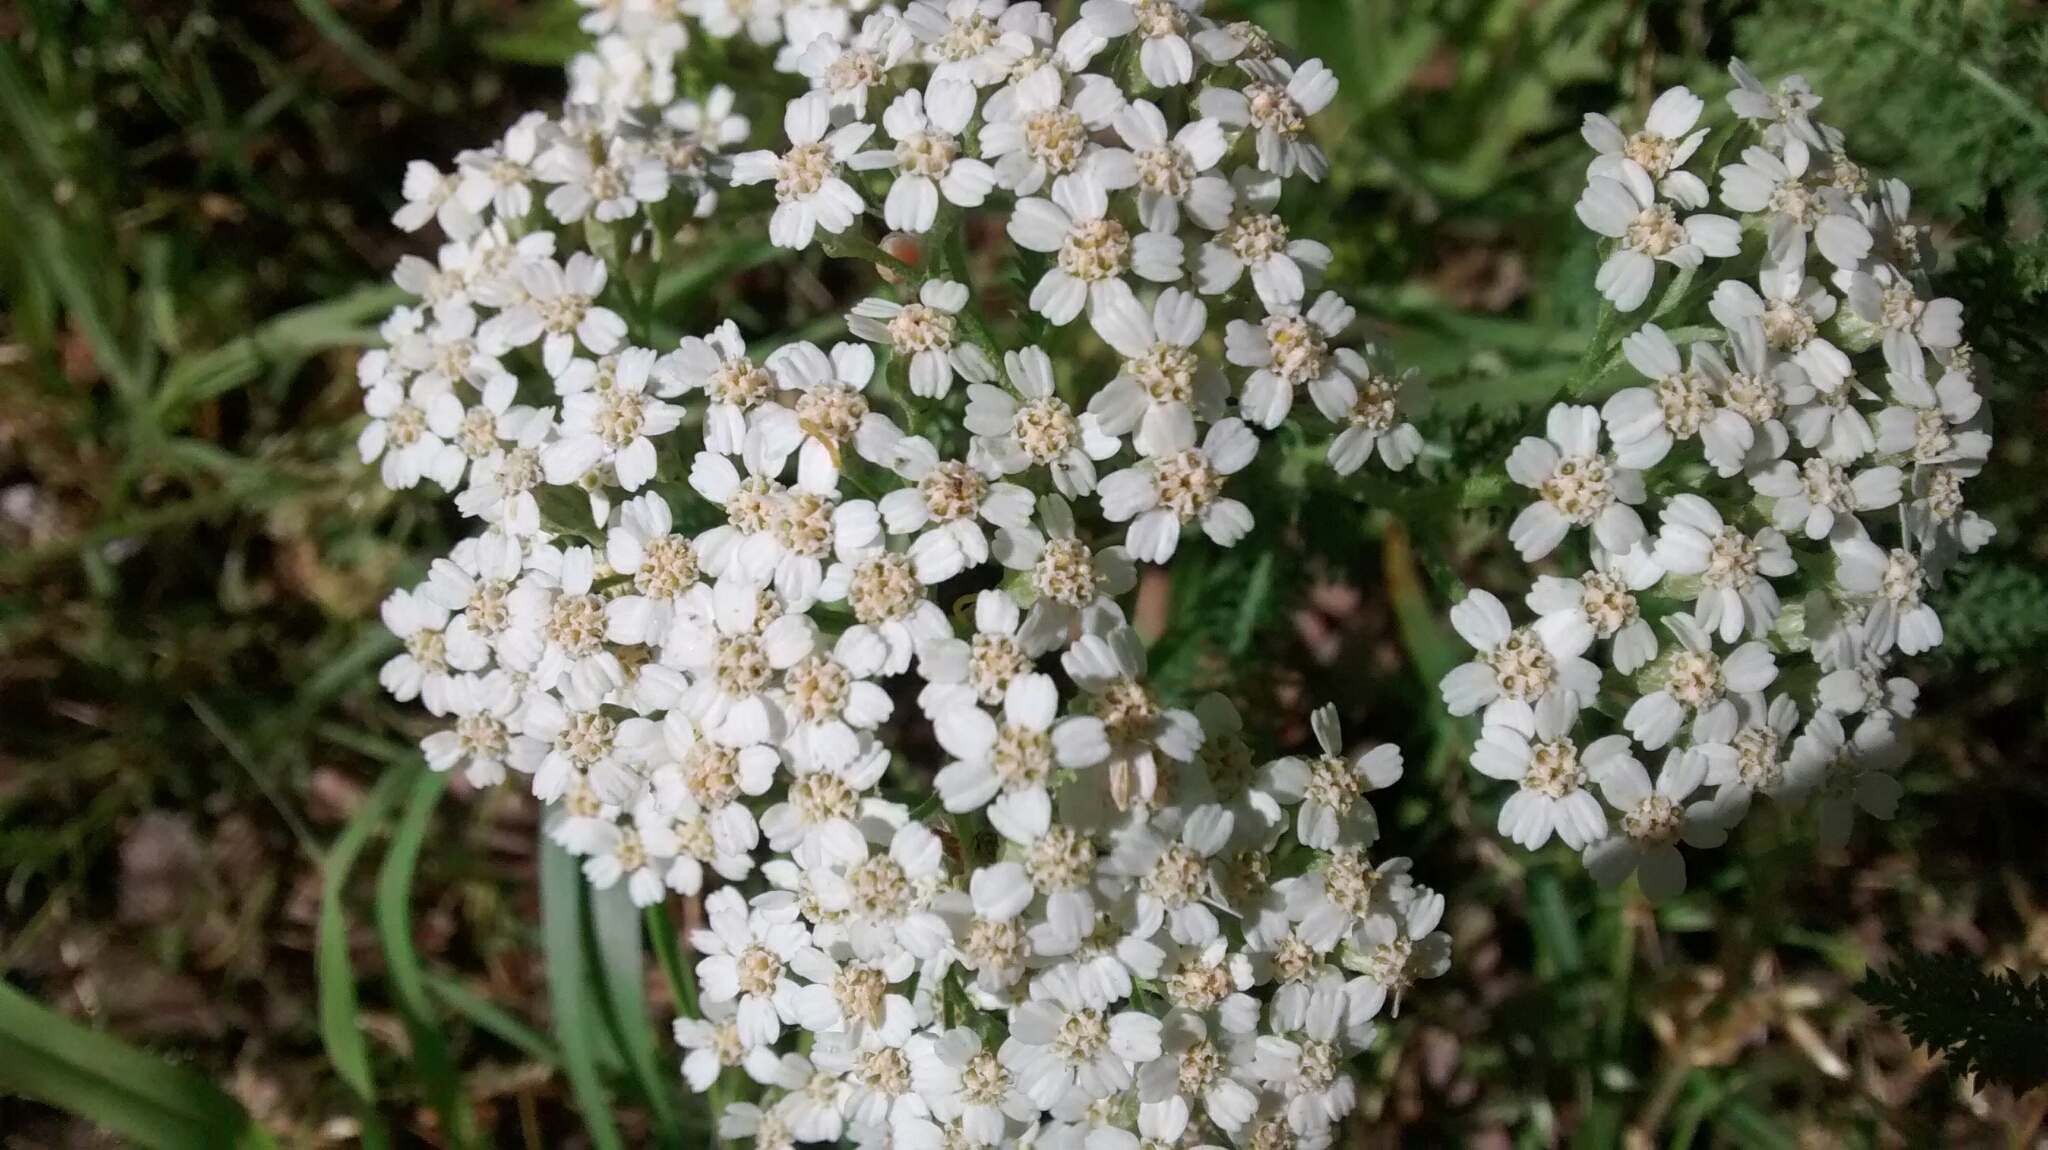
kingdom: Plantae
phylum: Tracheophyta
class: Magnoliopsida
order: Asterales
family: Asteraceae
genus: Achillea
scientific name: Achillea millefolium
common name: Yarrow
